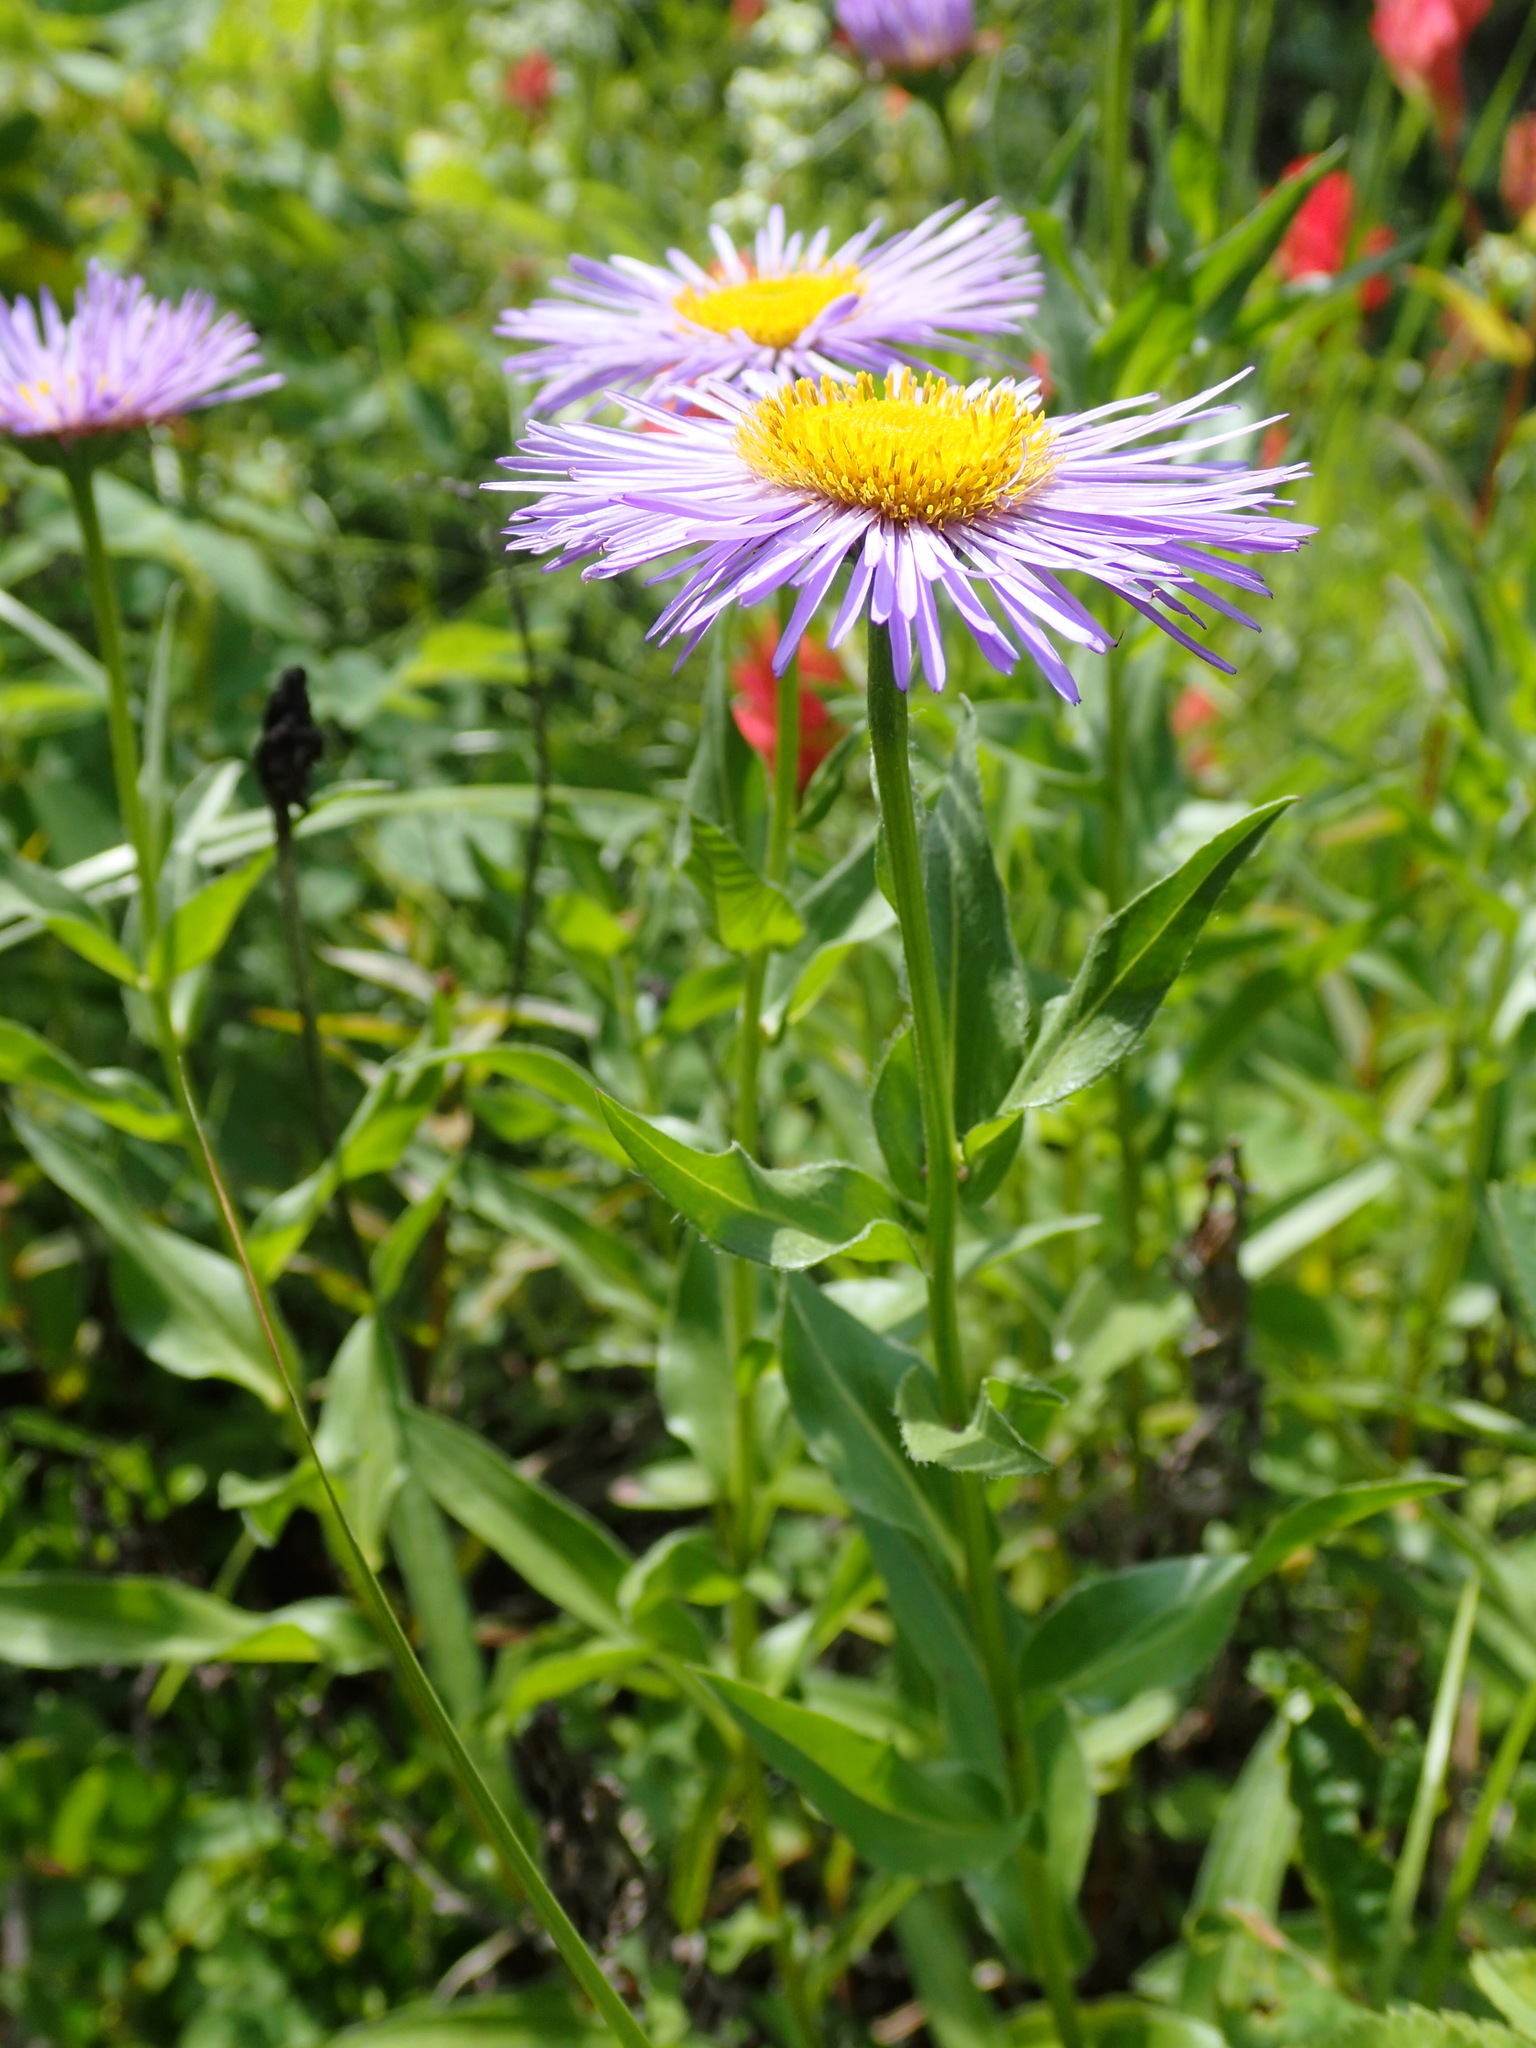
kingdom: Plantae
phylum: Tracheophyta
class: Magnoliopsida
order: Asterales
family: Asteraceae
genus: Erigeron
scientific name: Erigeron speciosus
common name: Aspen fleabane
